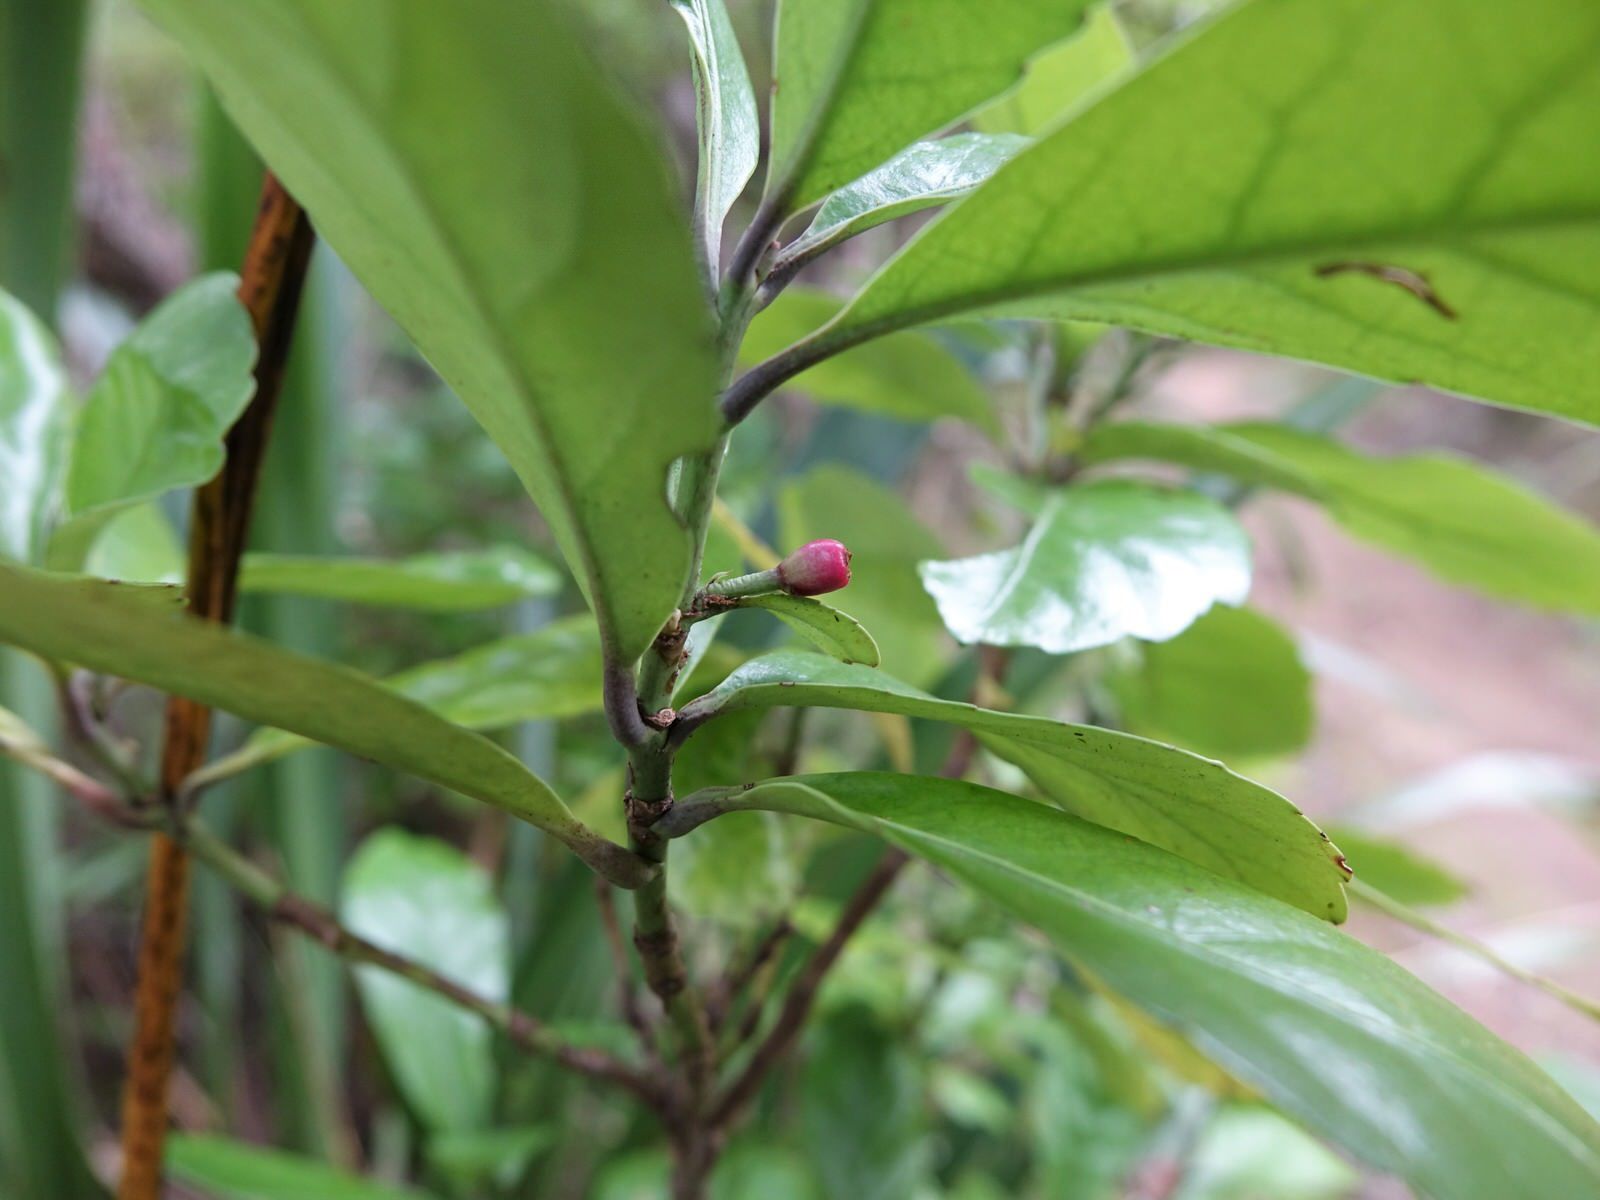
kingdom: Plantae
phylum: Tracheophyta
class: Magnoliopsida
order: Asterales
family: Alseuosmiaceae
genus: Alseuosmia
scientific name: Alseuosmia macrophylla
